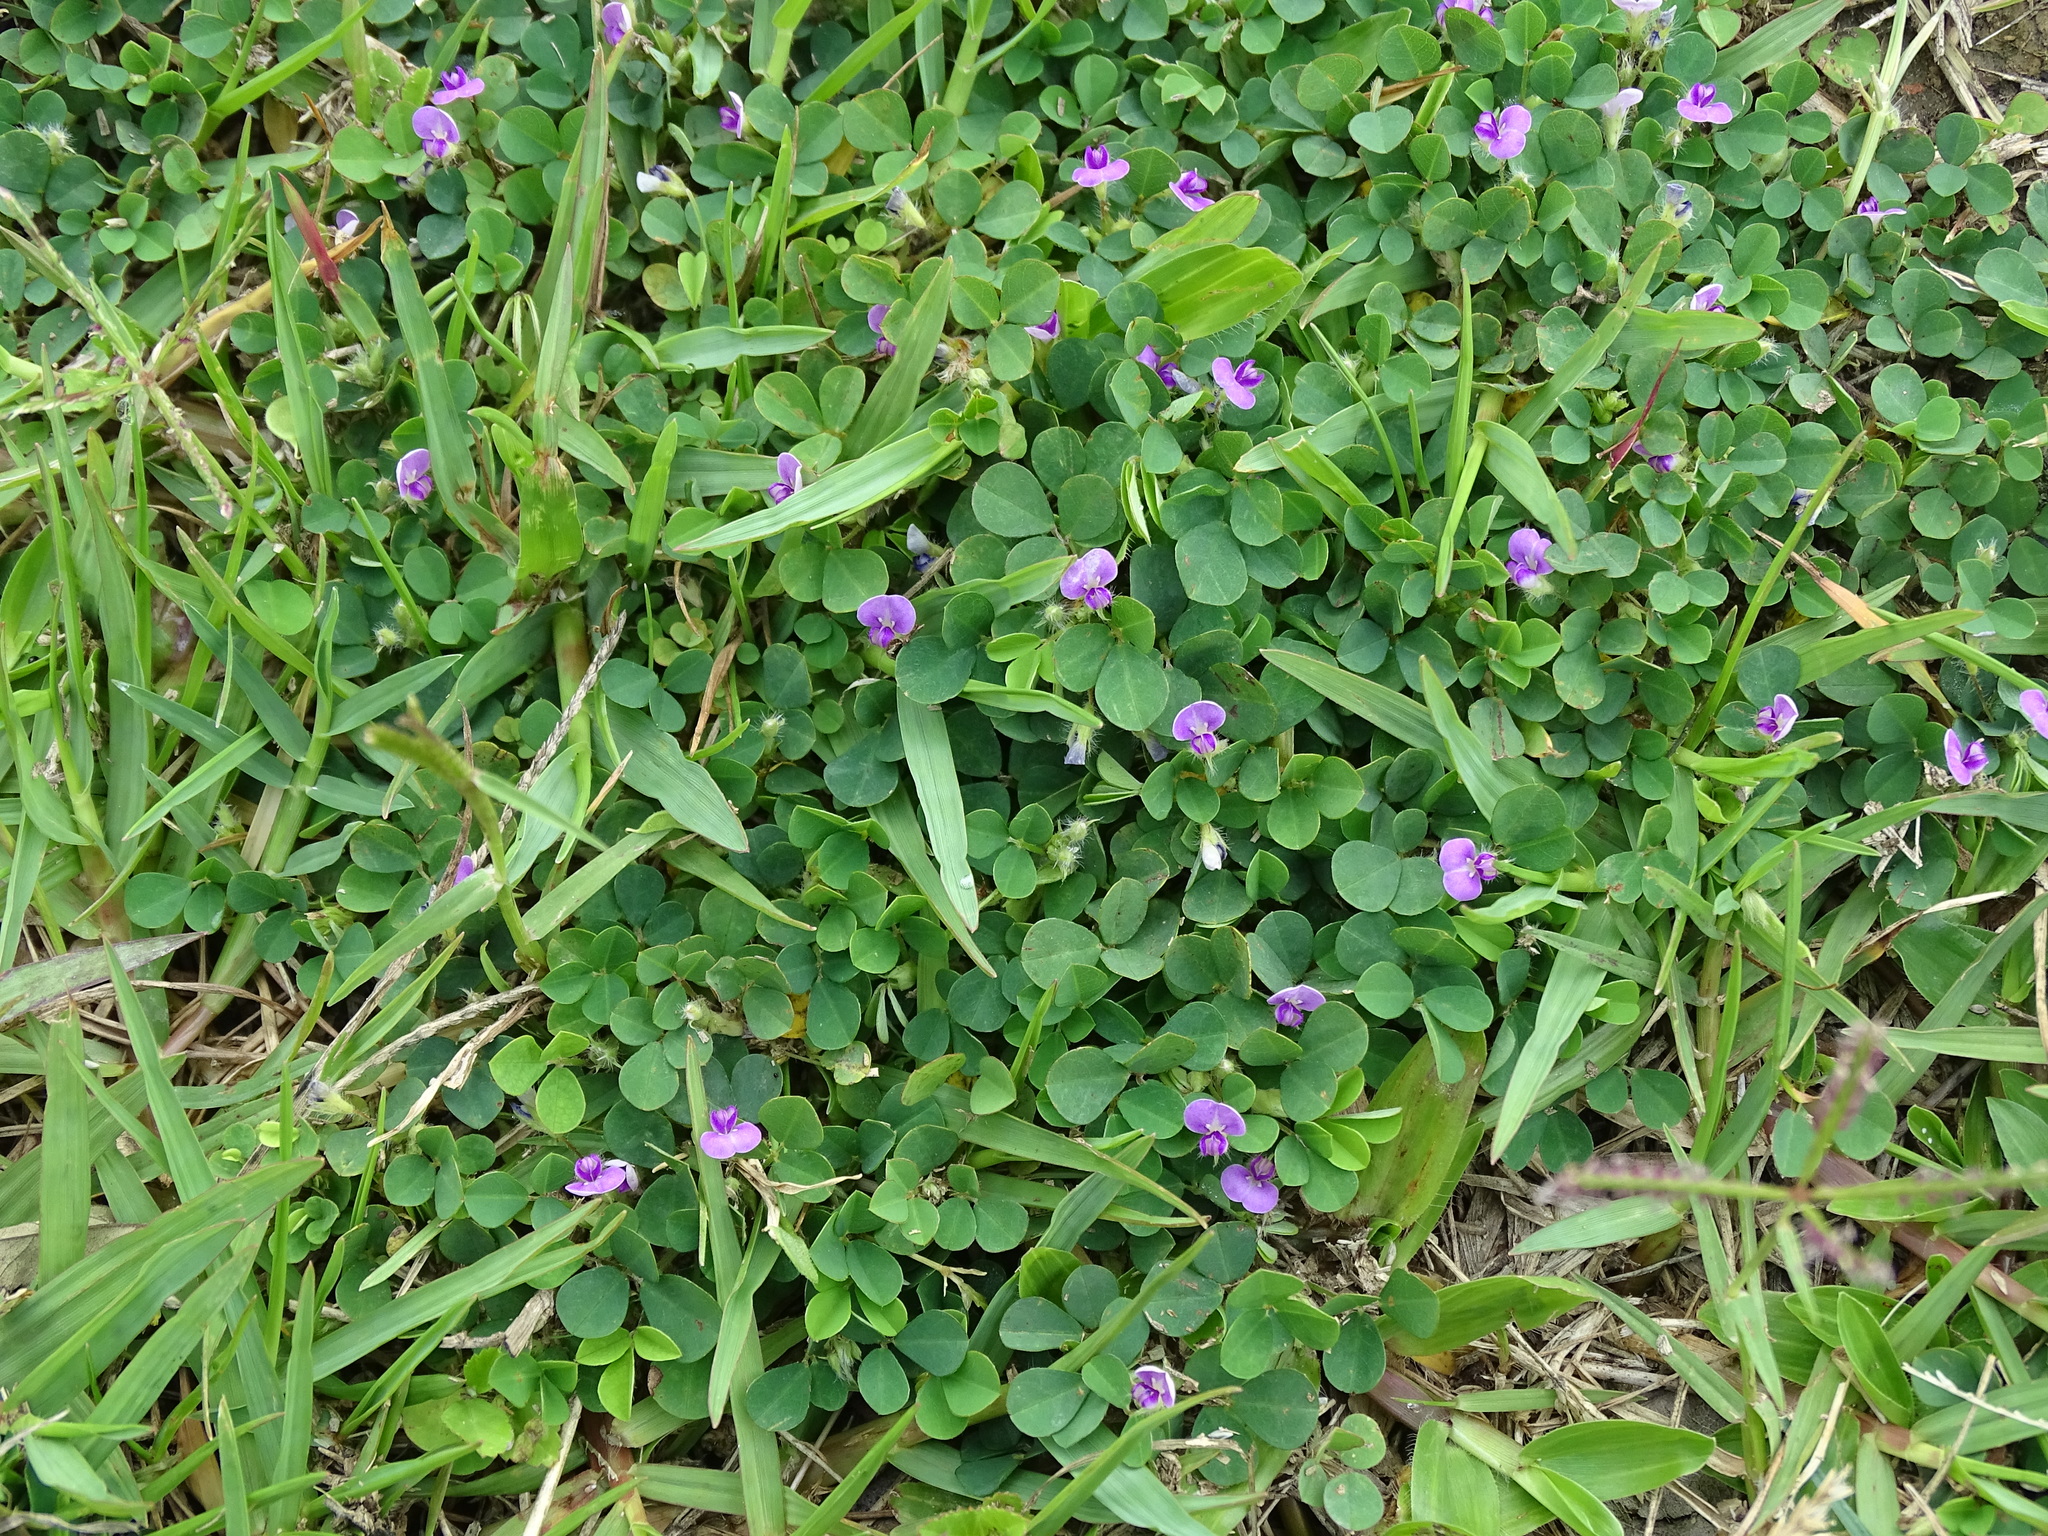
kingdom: Plantae
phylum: Tracheophyta
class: Magnoliopsida
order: Fabales
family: Fabaceae
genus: Grona
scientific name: Grona triflora
